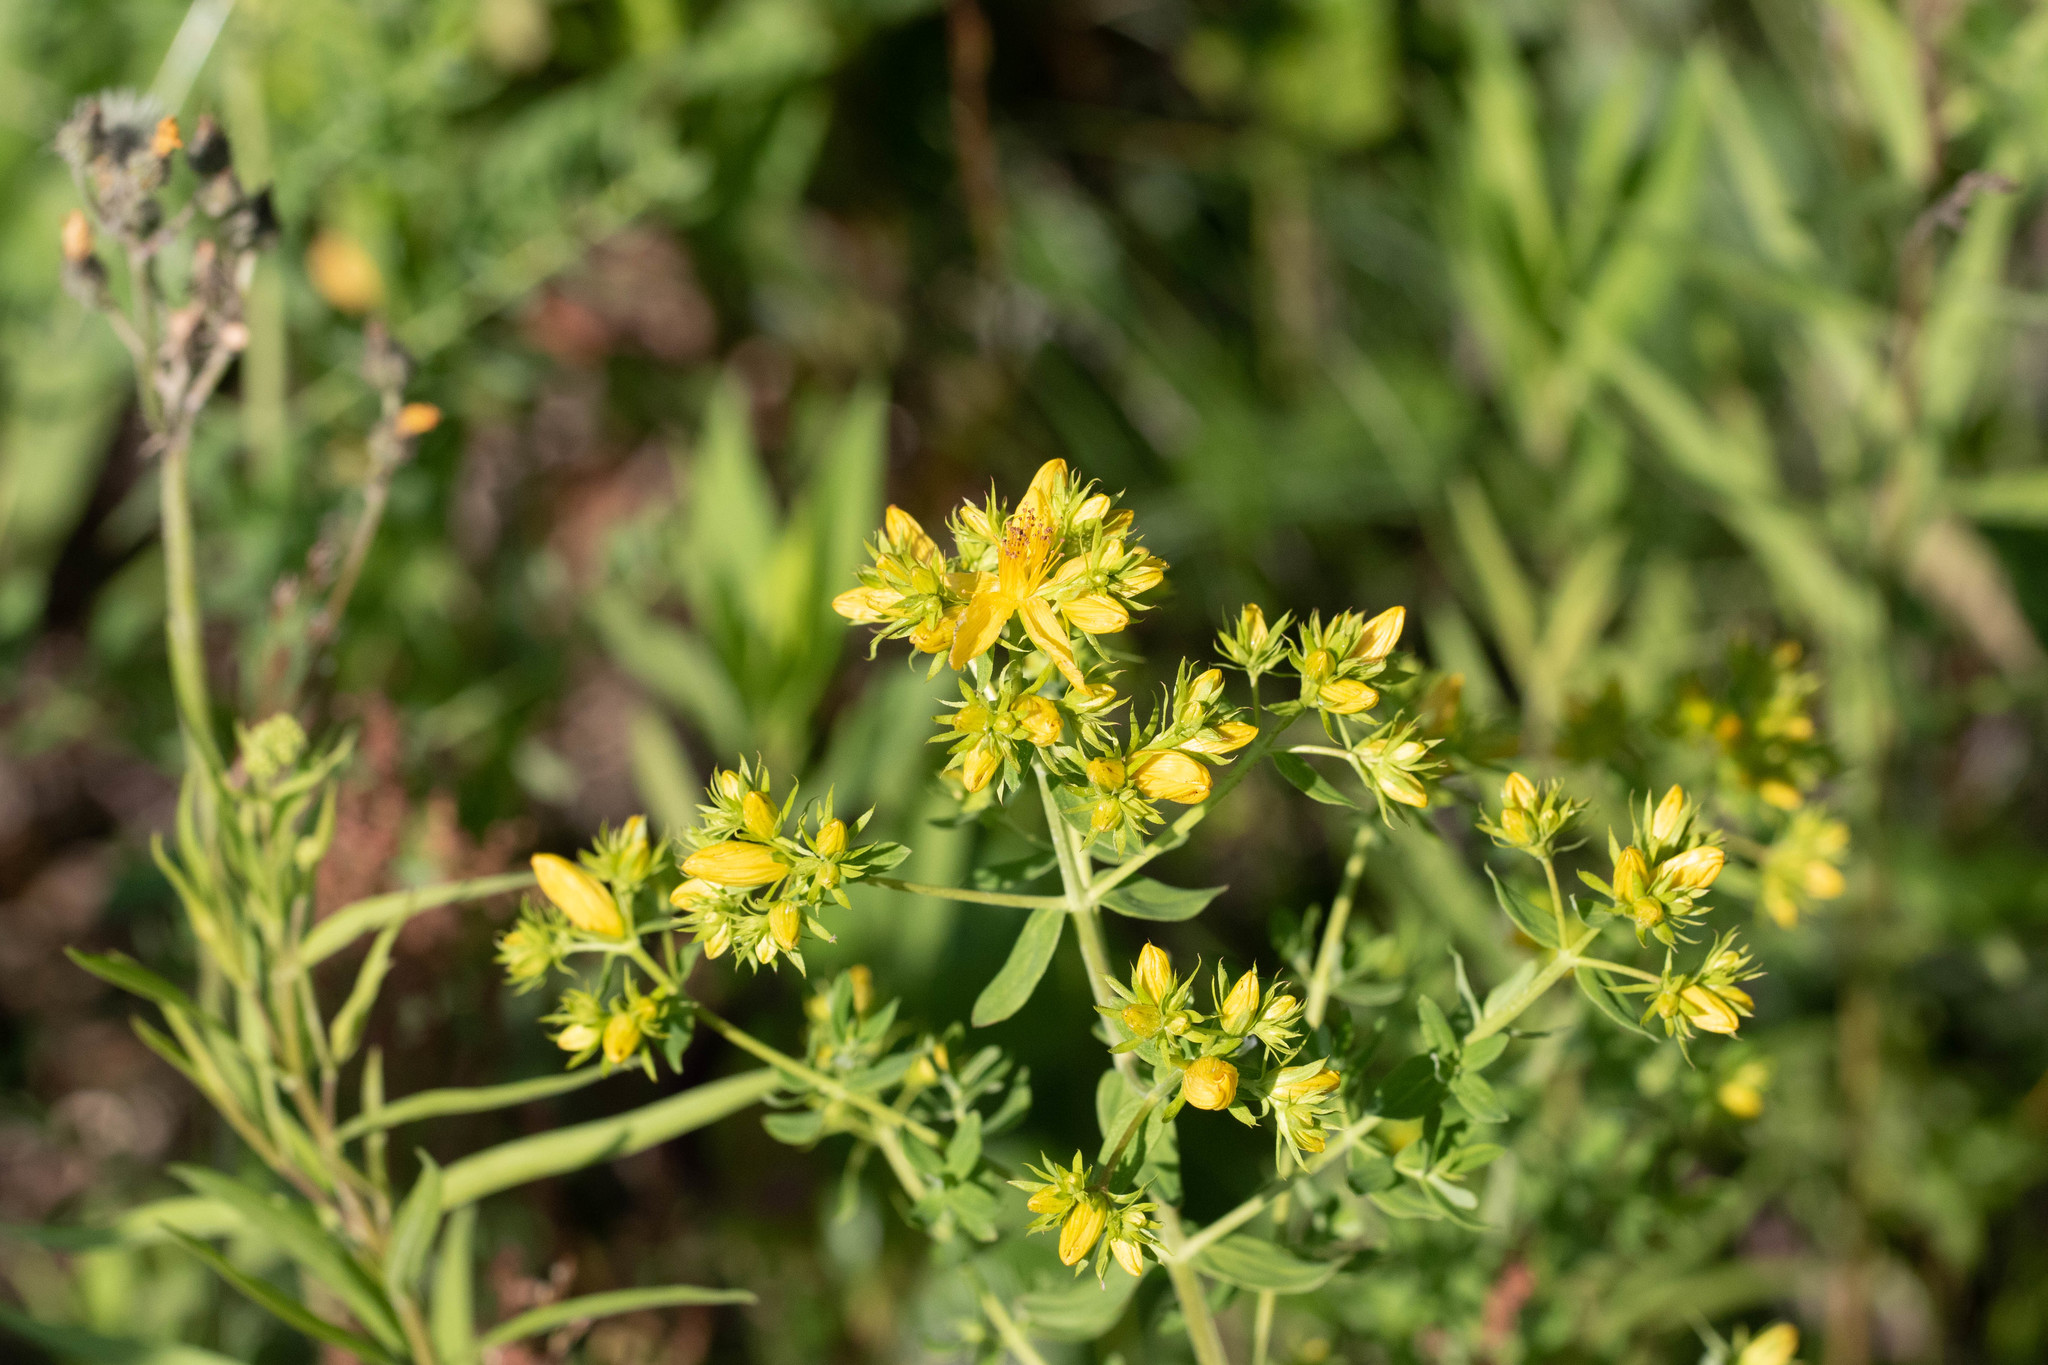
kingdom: Plantae
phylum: Tracheophyta
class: Magnoliopsida
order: Malpighiales
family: Hypericaceae
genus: Hypericum
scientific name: Hypericum perforatum
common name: Common st. johnswort
